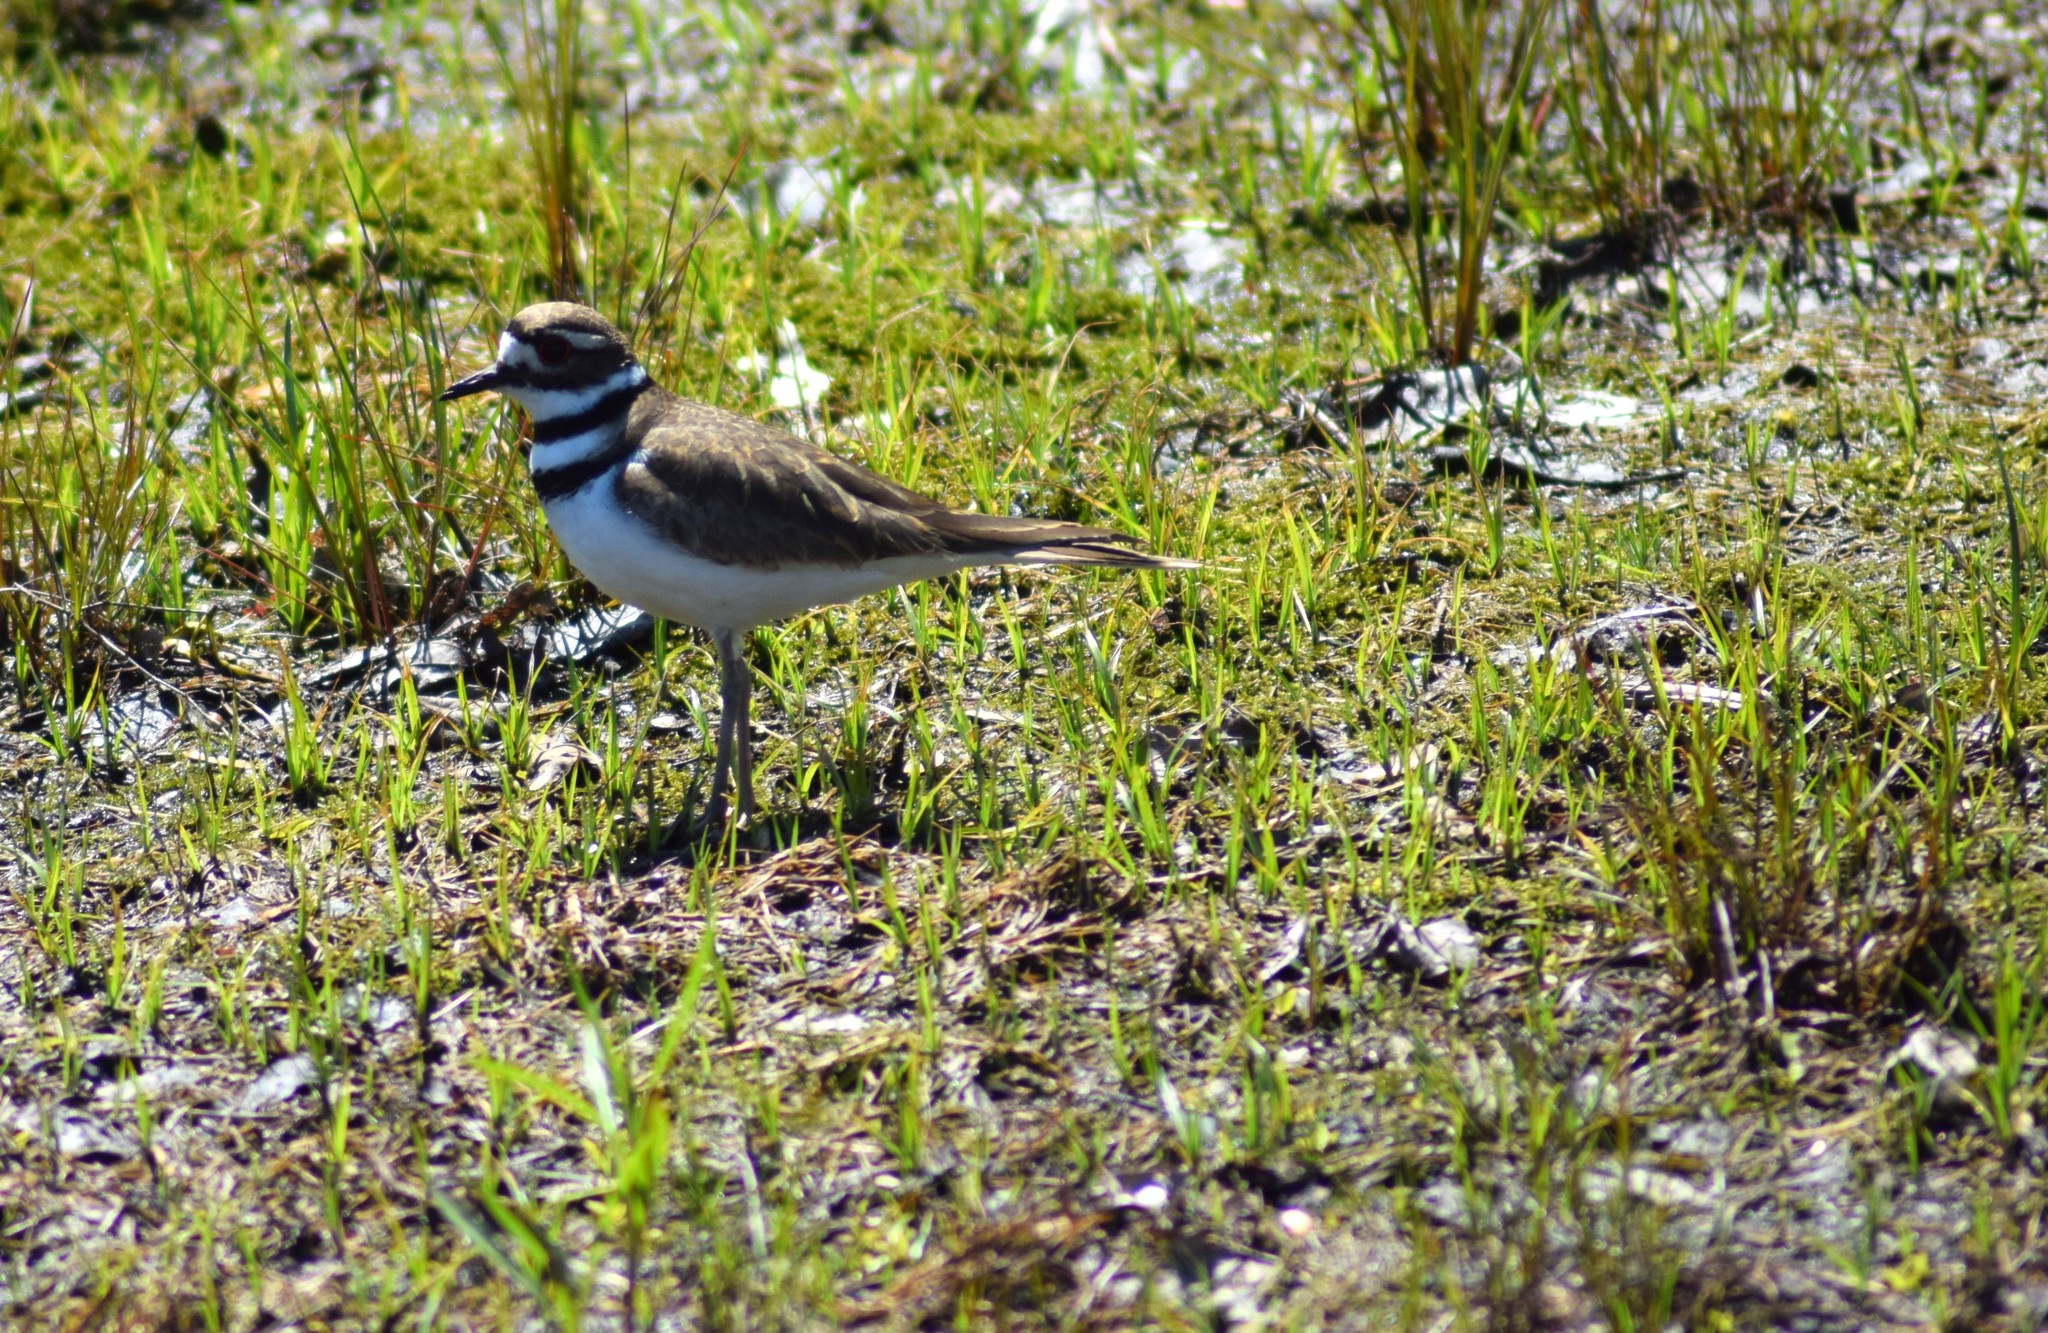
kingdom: Animalia
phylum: Chordata
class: Aves
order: Charadriiformes
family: Charadriidae
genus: Charadrius
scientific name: Charadrius vociferus
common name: Killdeer
